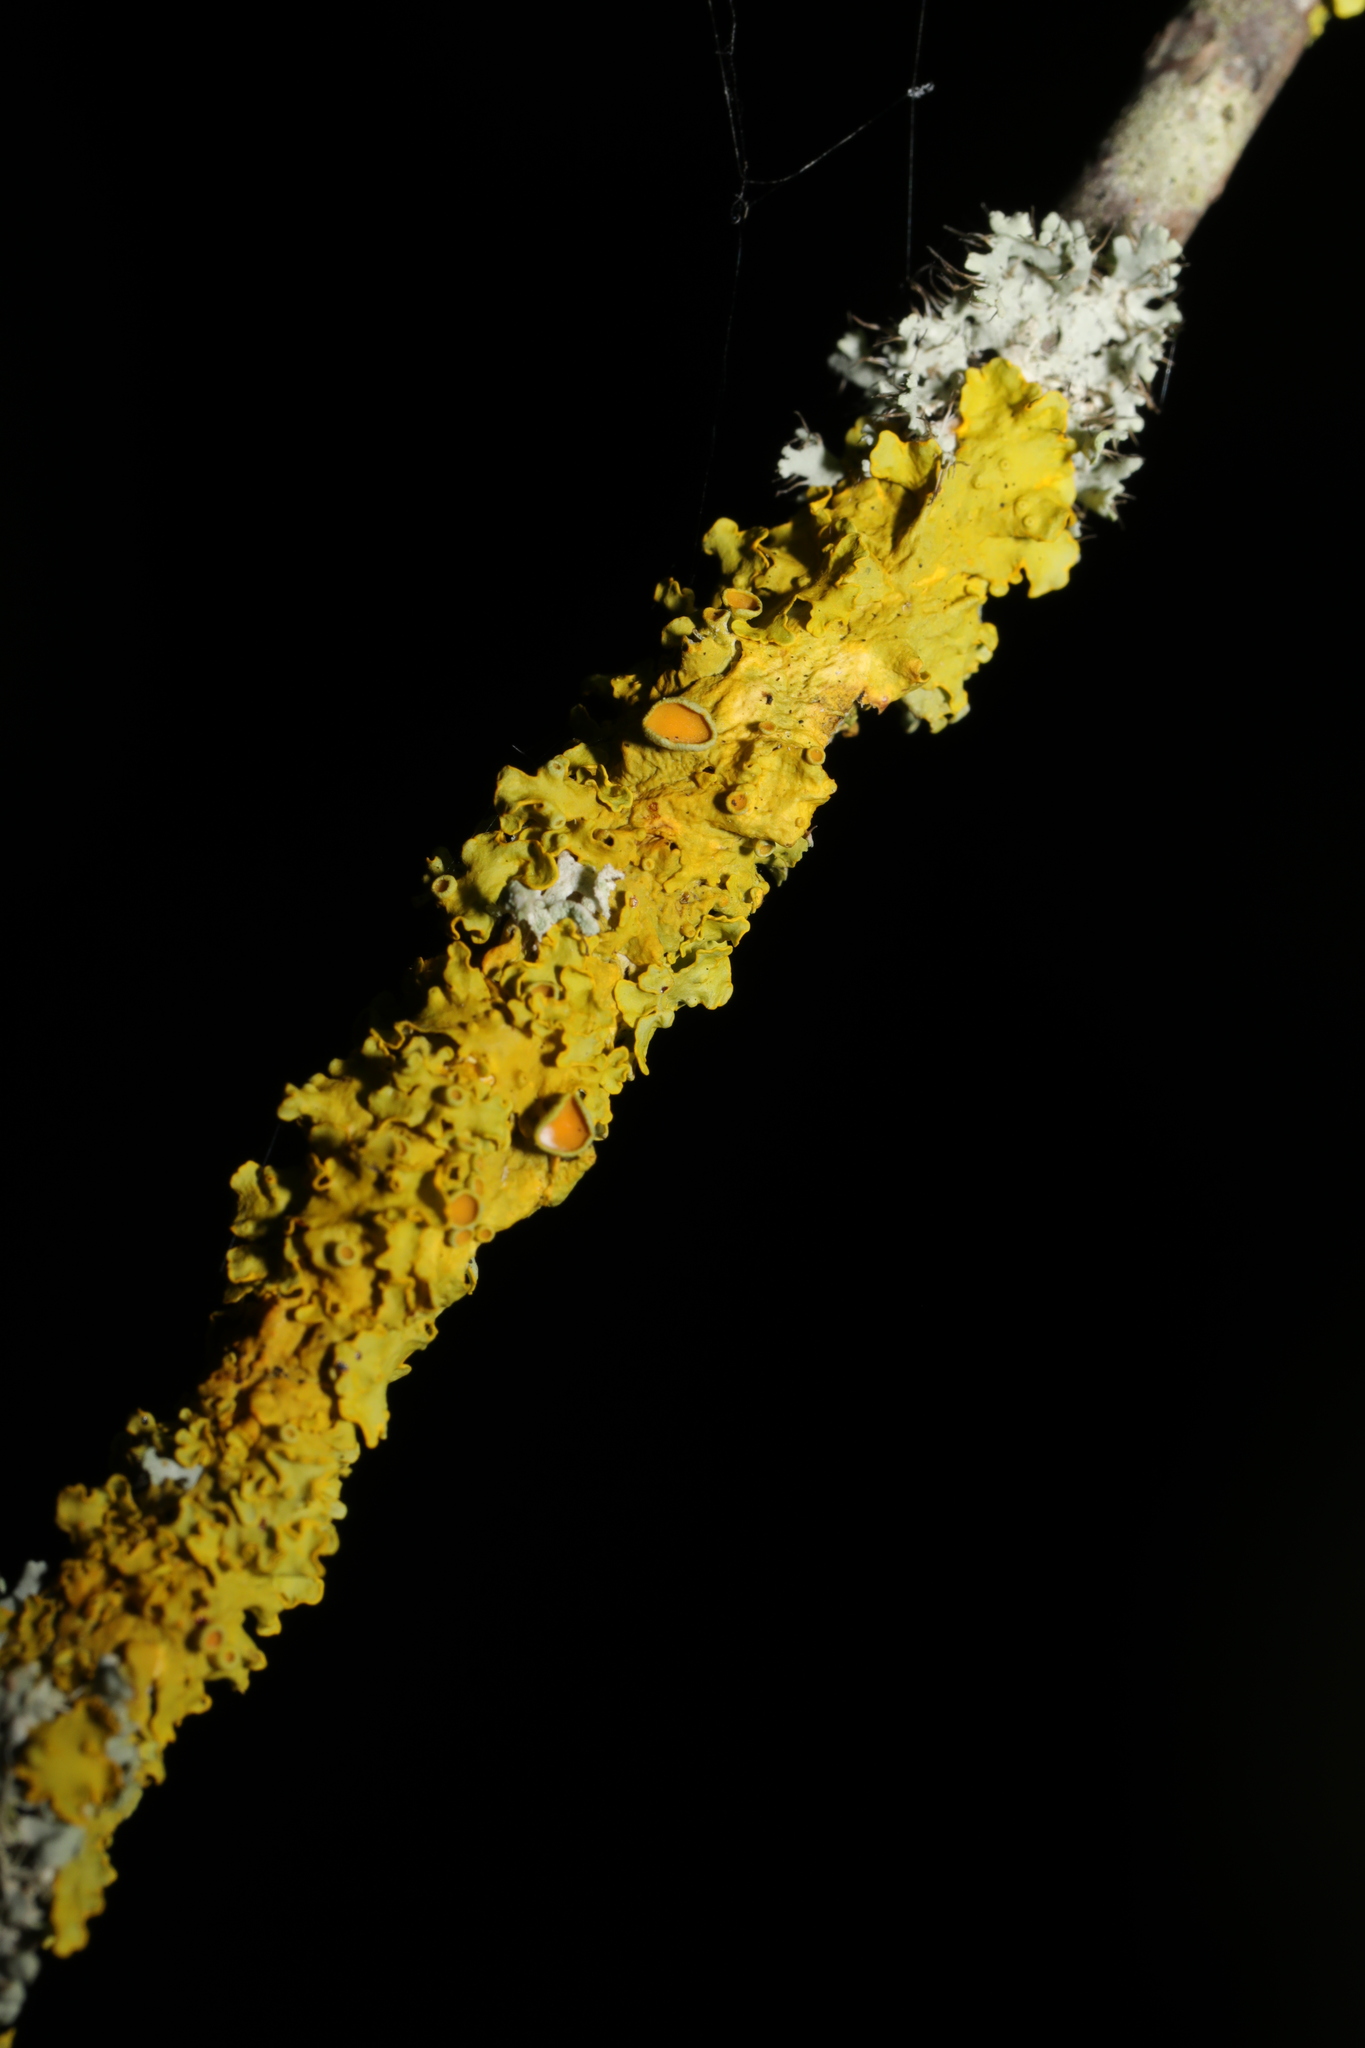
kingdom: Fungi
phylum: Ascomycota
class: Lecanoromycetes
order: Teloschistales
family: Teloschistaceae
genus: Xanthoria
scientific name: Xanthoria parietina
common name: Common orange lichen
